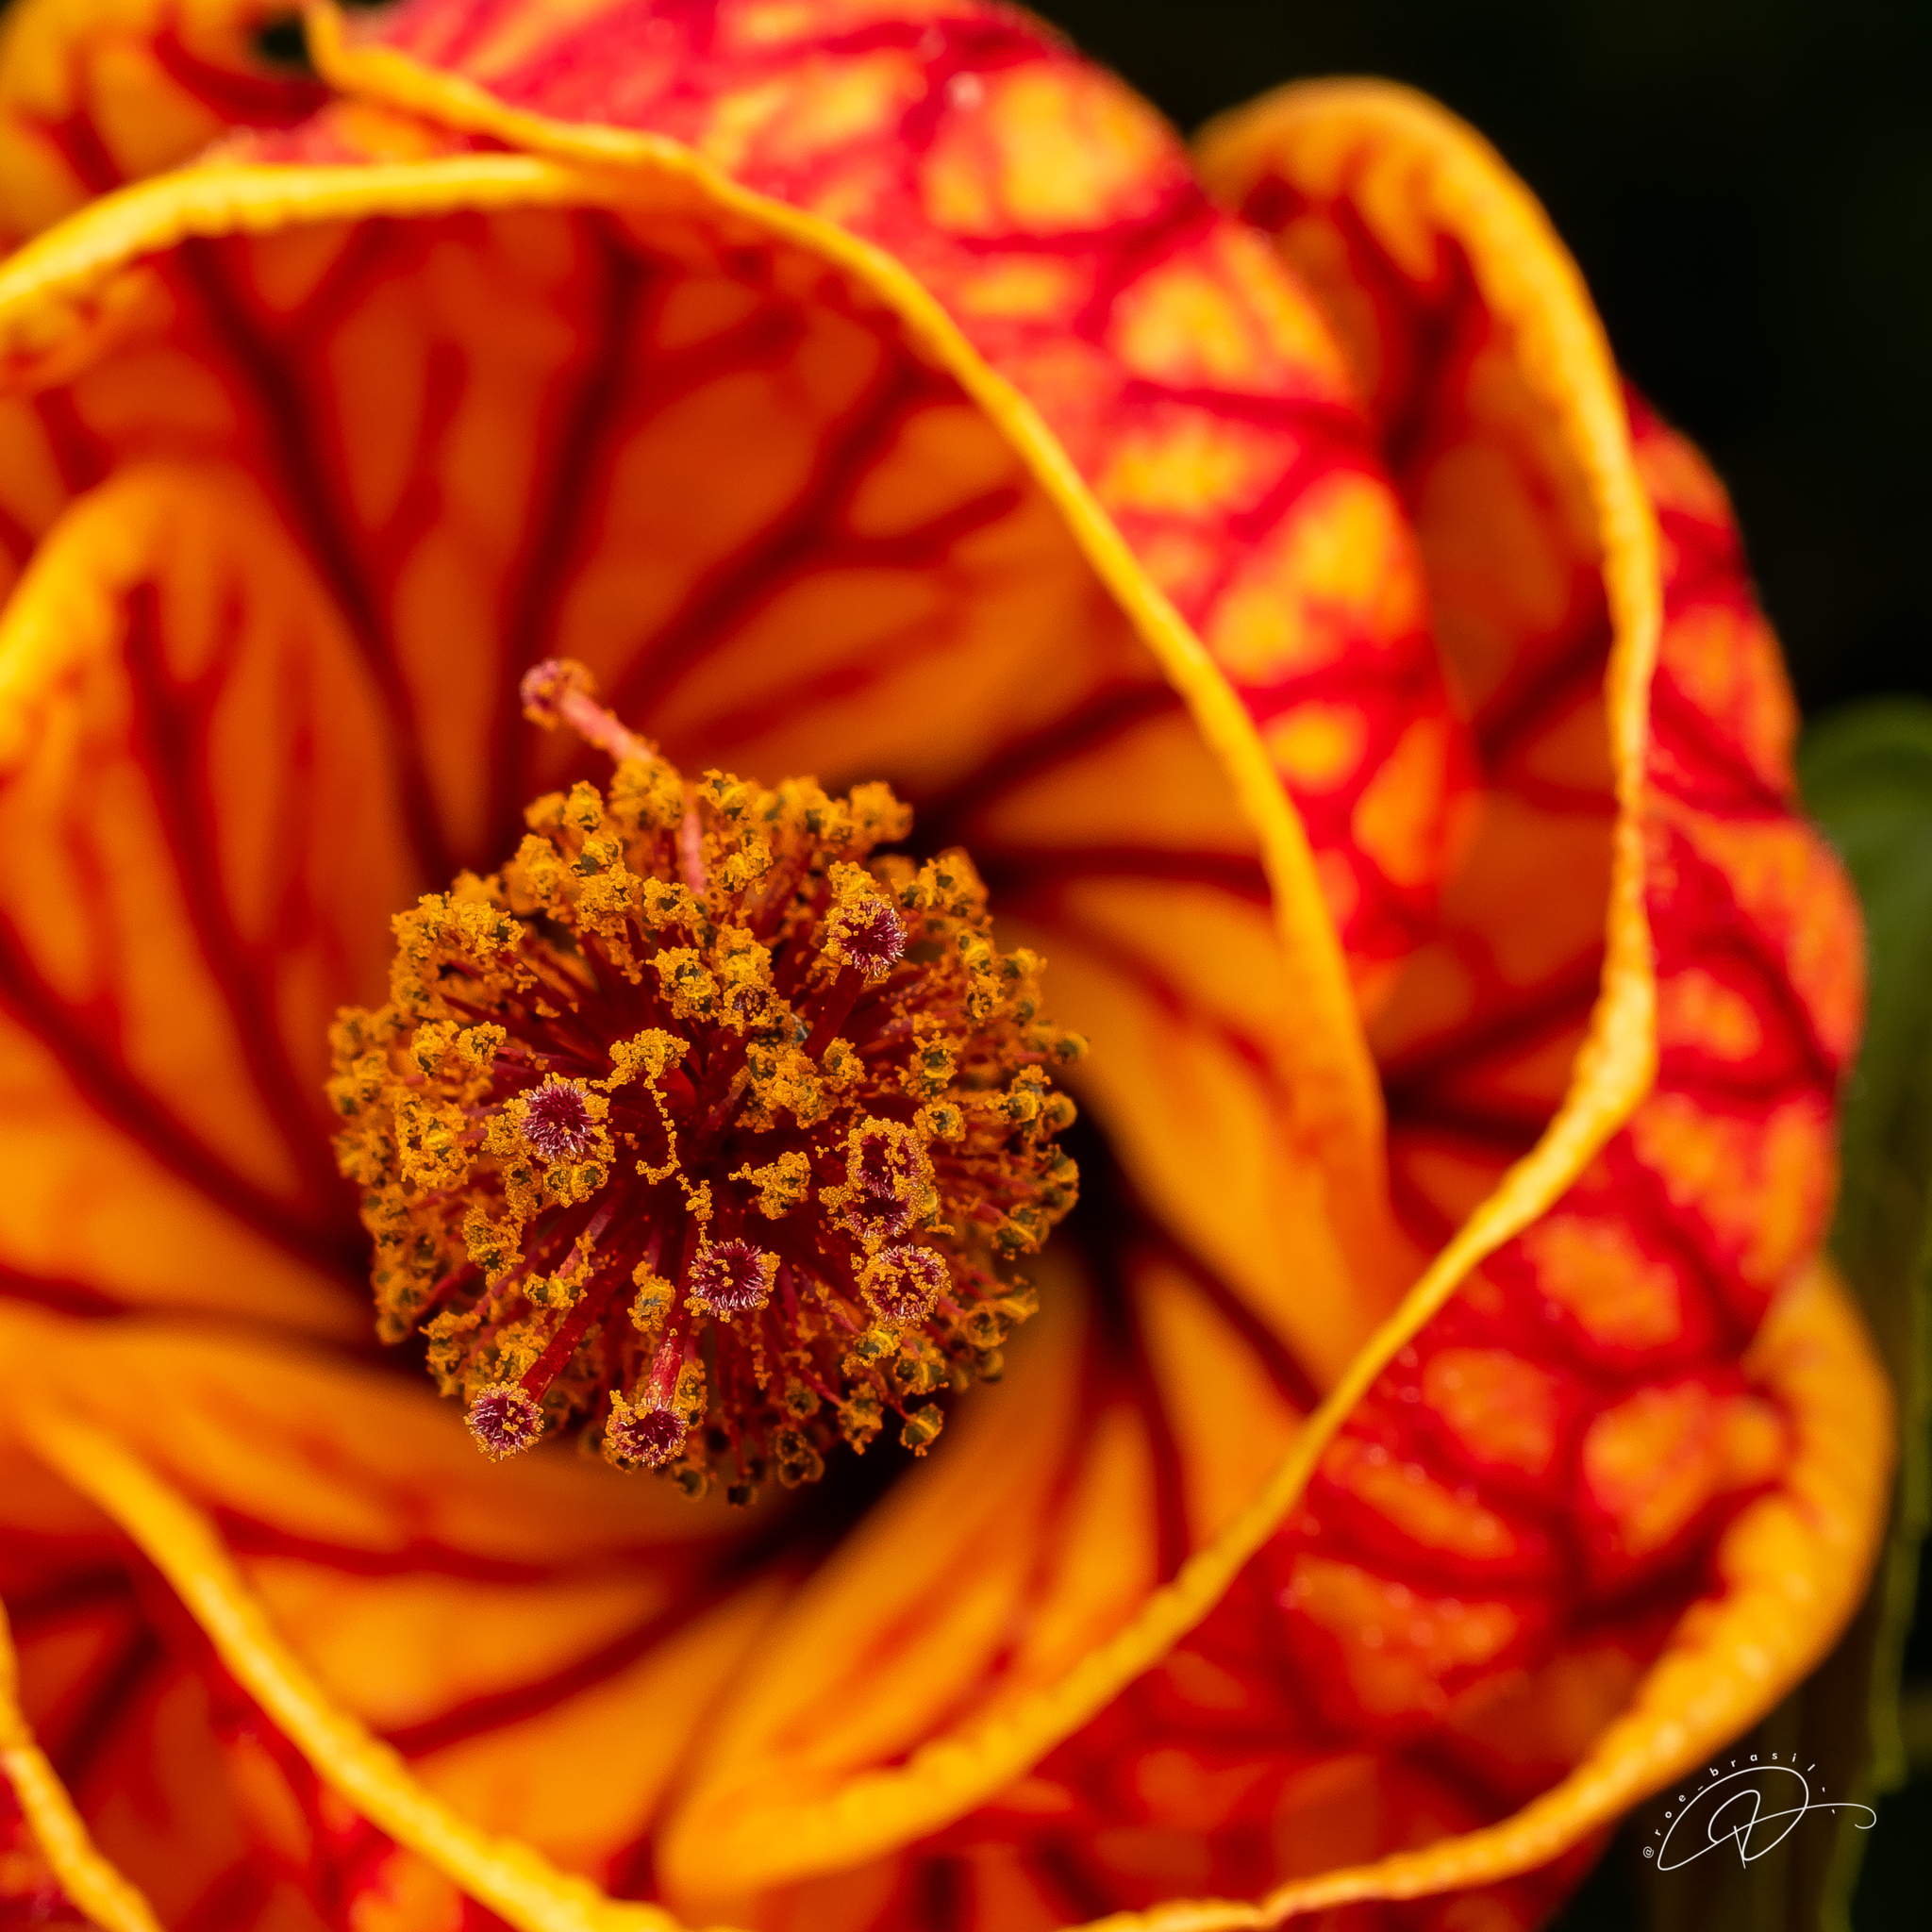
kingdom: Plantae
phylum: Tracheophyta
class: Magnoliopsida
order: Malvales
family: Malvaceae
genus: Callianthe
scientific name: Callianthe picta
